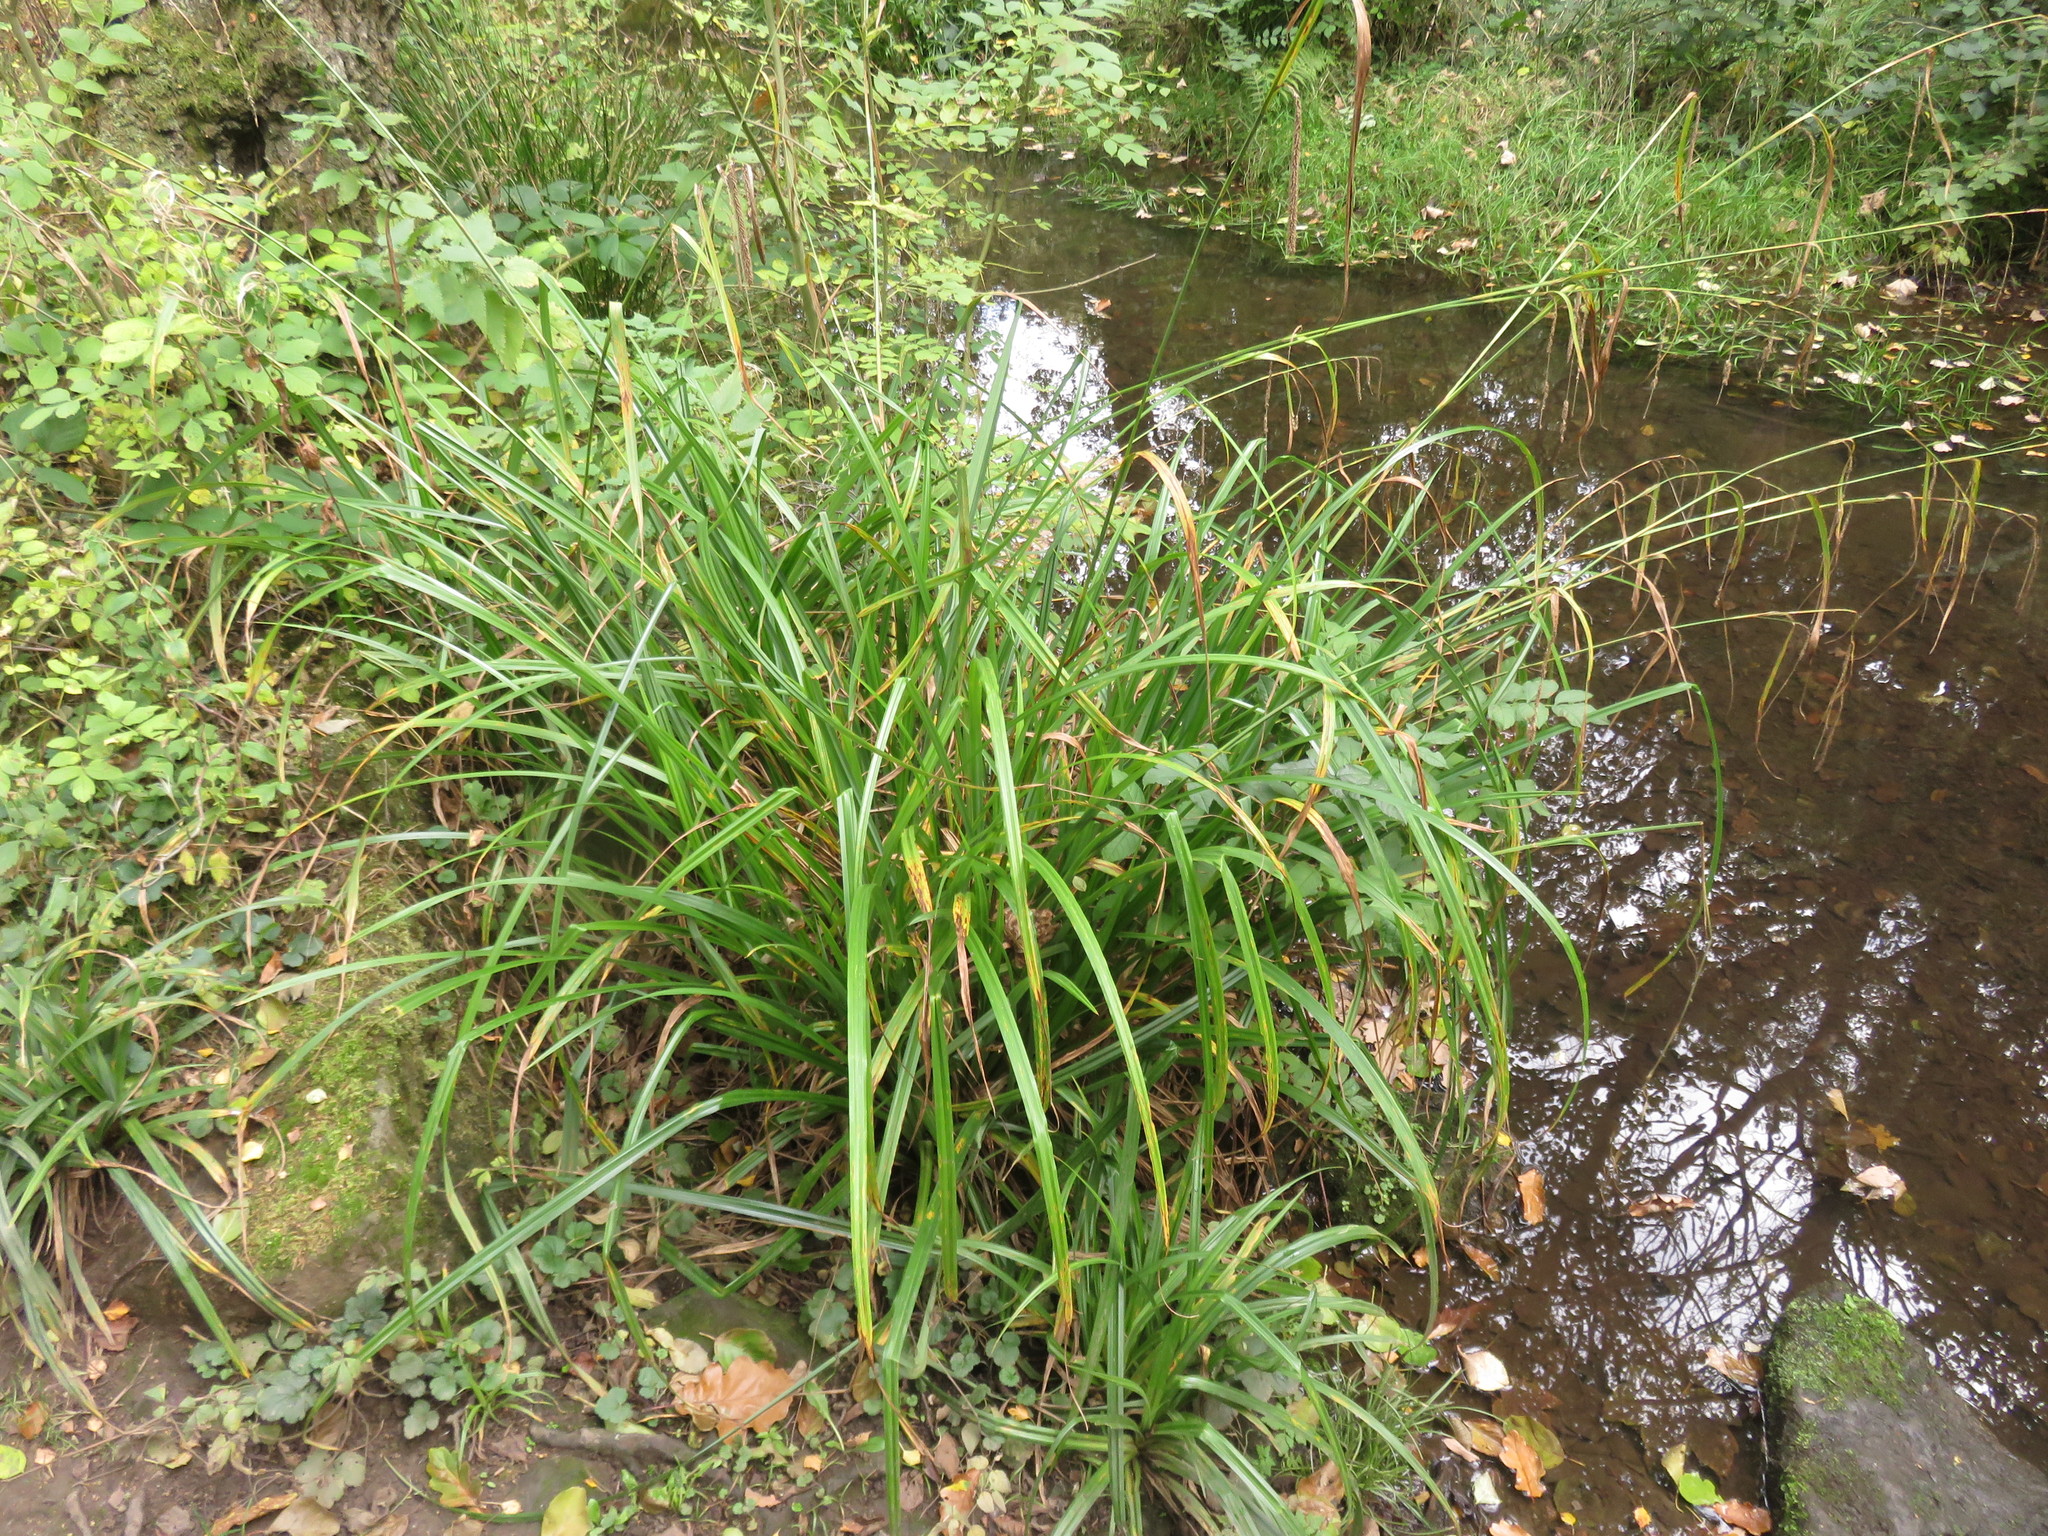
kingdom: Plantae
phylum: Tracheophyta
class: Liliopsida
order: Poales
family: Cyperaceae
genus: Carex
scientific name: Carex pendula
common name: Pendulous sedge
